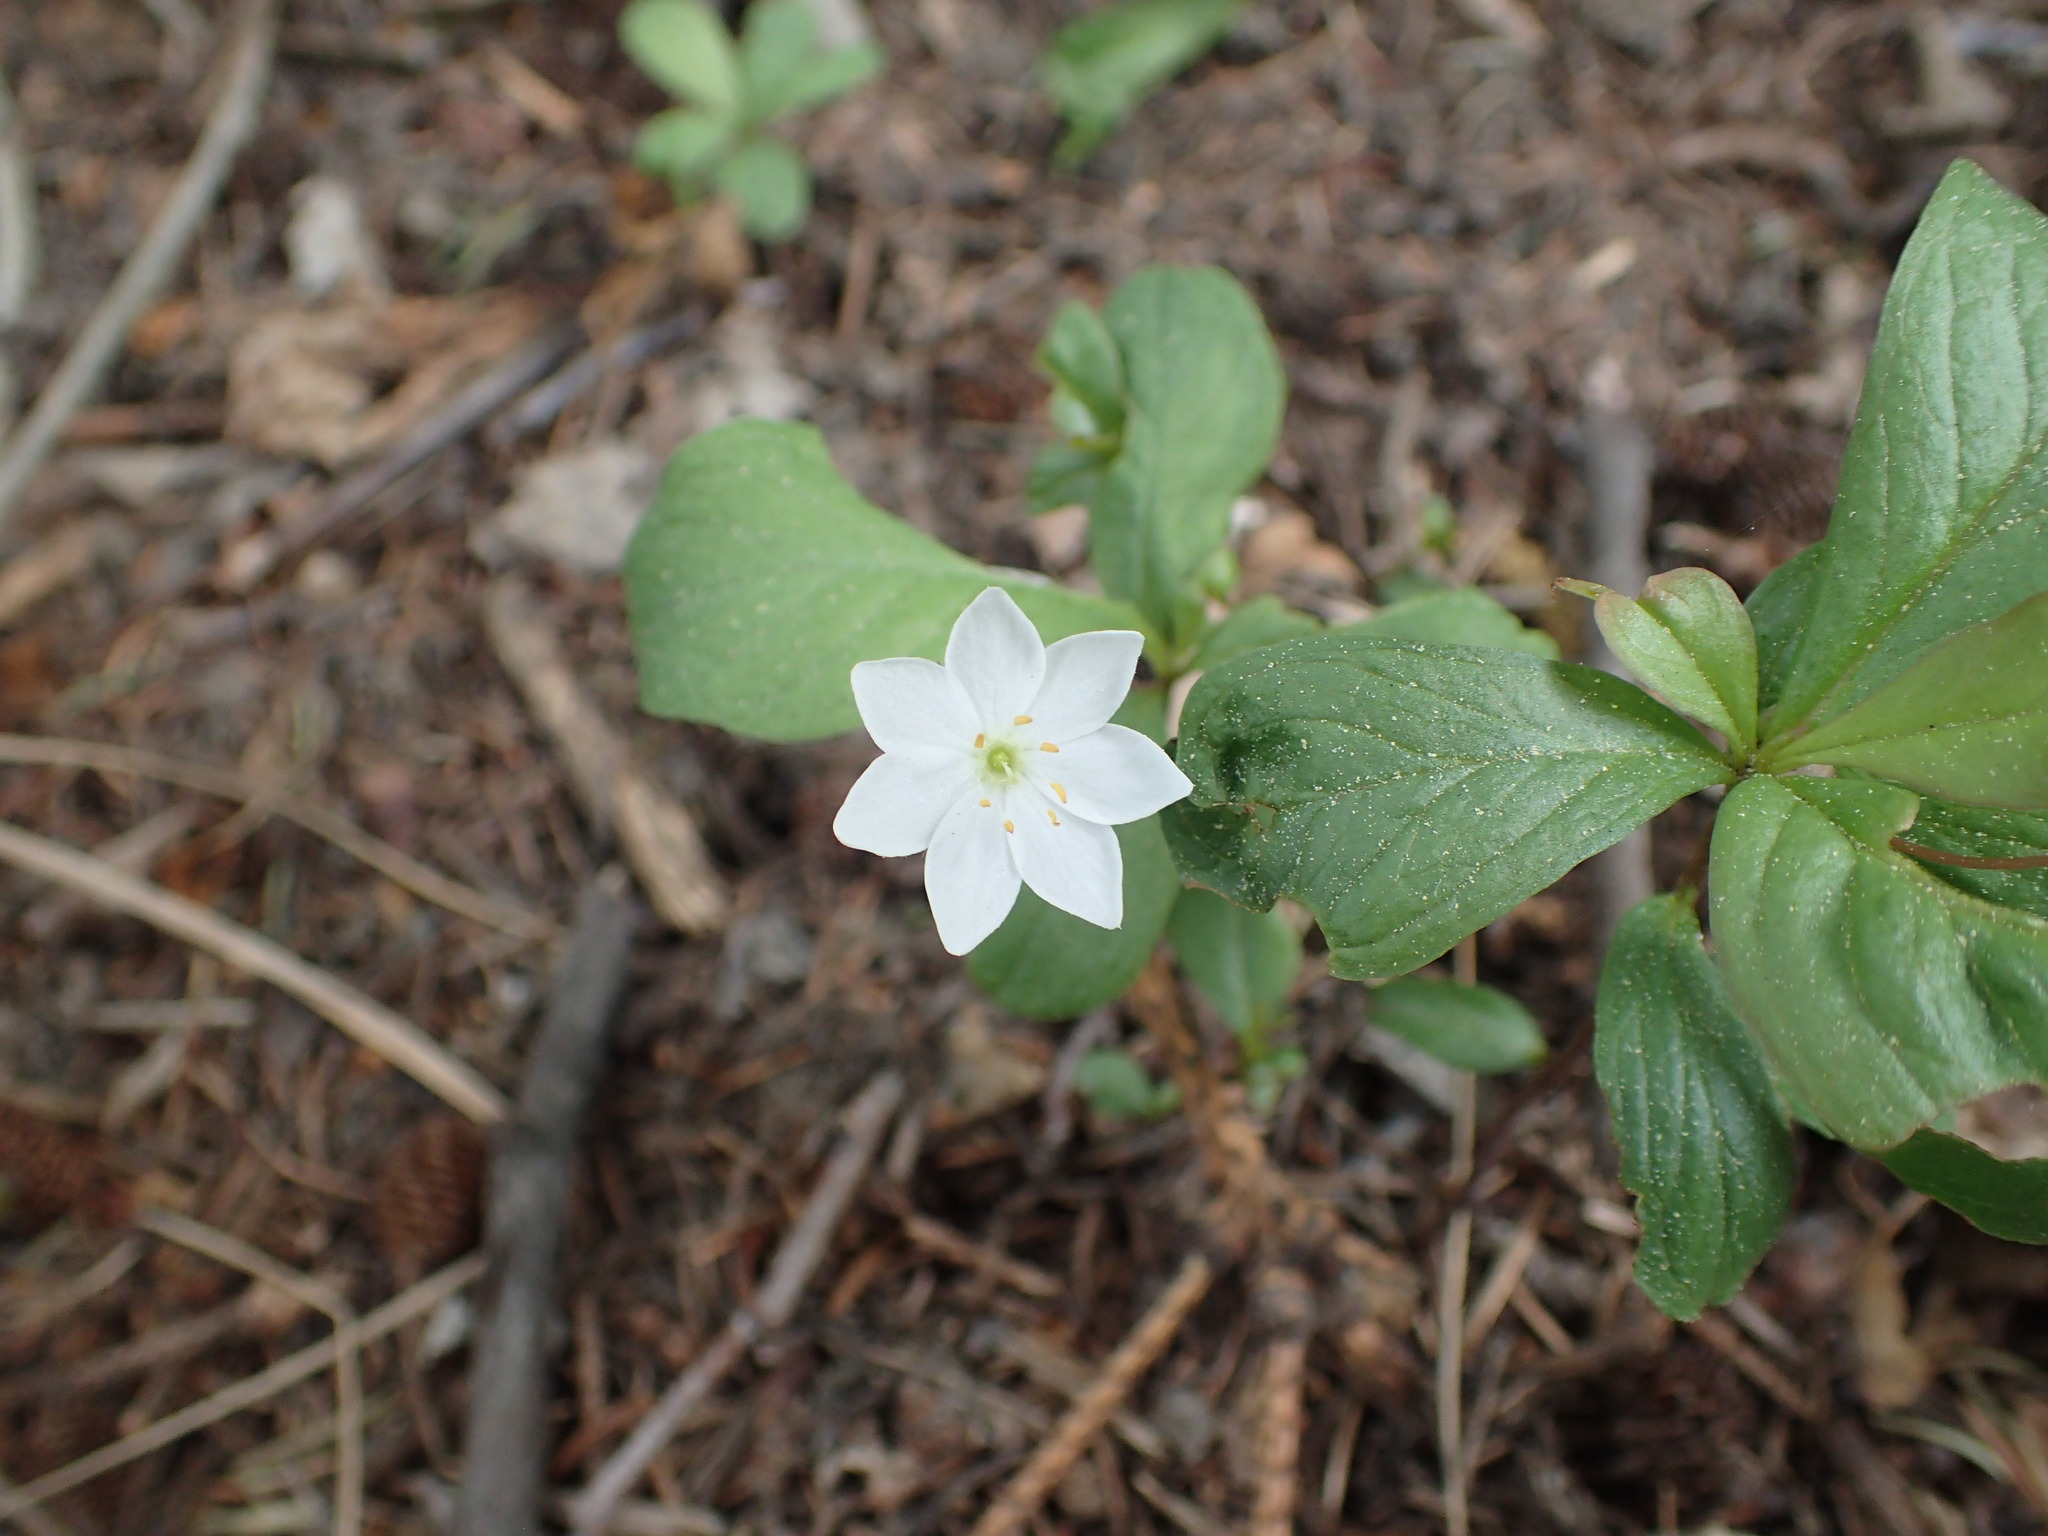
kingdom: Plantae
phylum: Tracheophyta
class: Magnoliopsida
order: Ericales
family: Primulaceae
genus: Lysimachia
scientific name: Lysimachia europaea
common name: Arctic starflower
